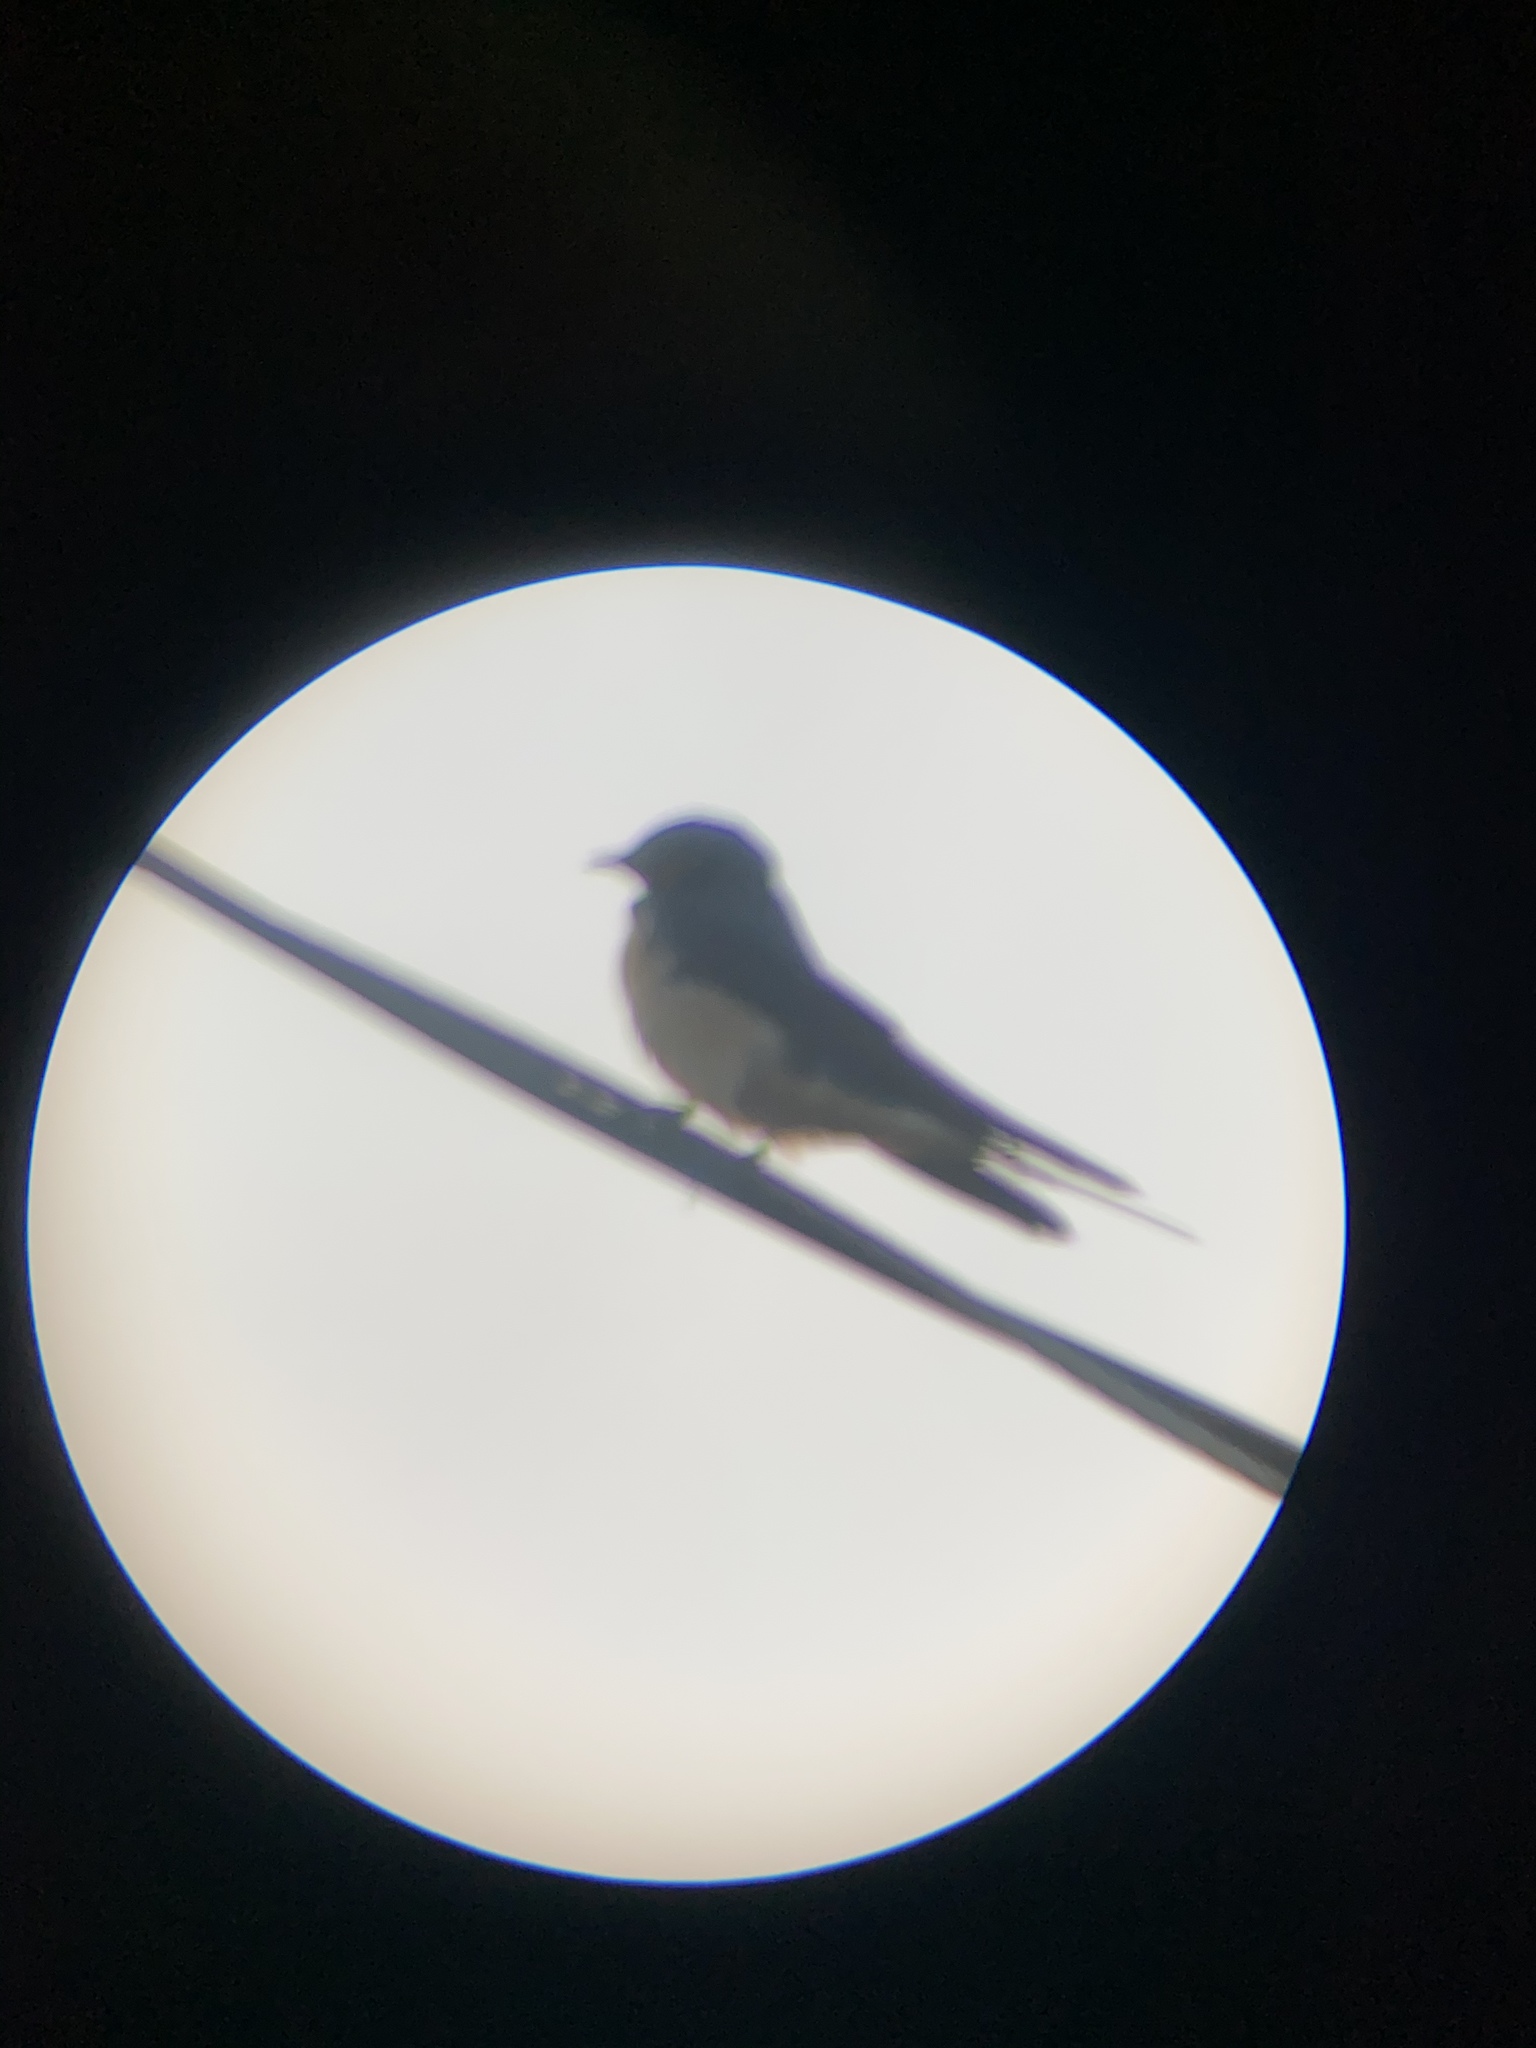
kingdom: Animalia
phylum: Chordata
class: Aves
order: Passeriformes
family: Hirundinidae
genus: Hirundo
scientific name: Hirundo rustica
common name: Barn swallow
